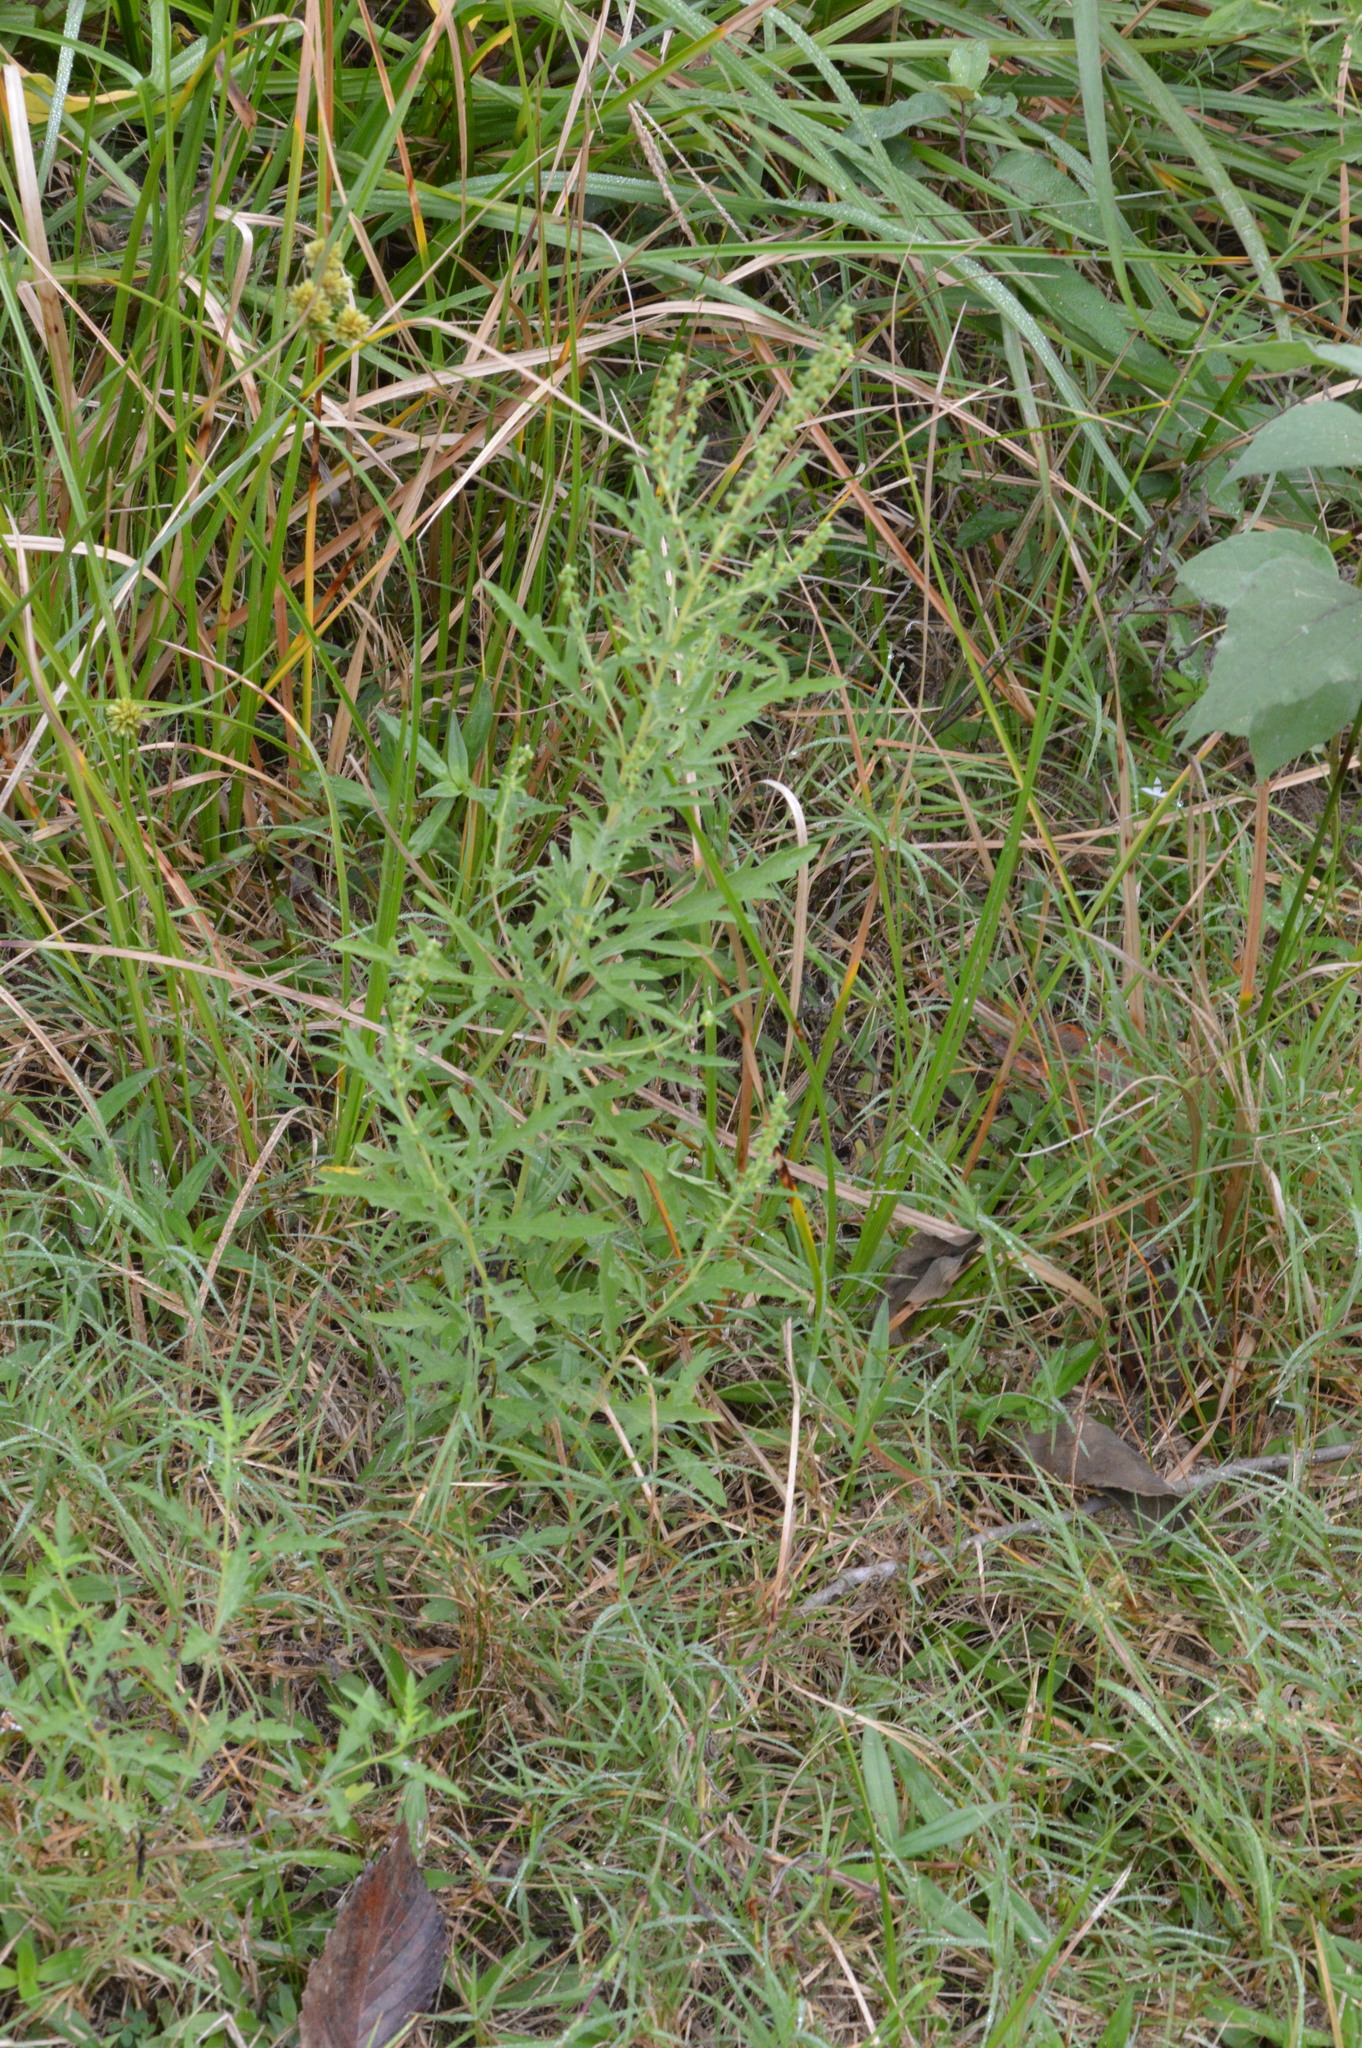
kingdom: Plantae
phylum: Tracheophyta
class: Magnoliopsida
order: Asterales
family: Asteraceae
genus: Ambrosia
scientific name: Ambrosia psilostachya
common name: Perennial ragweed
